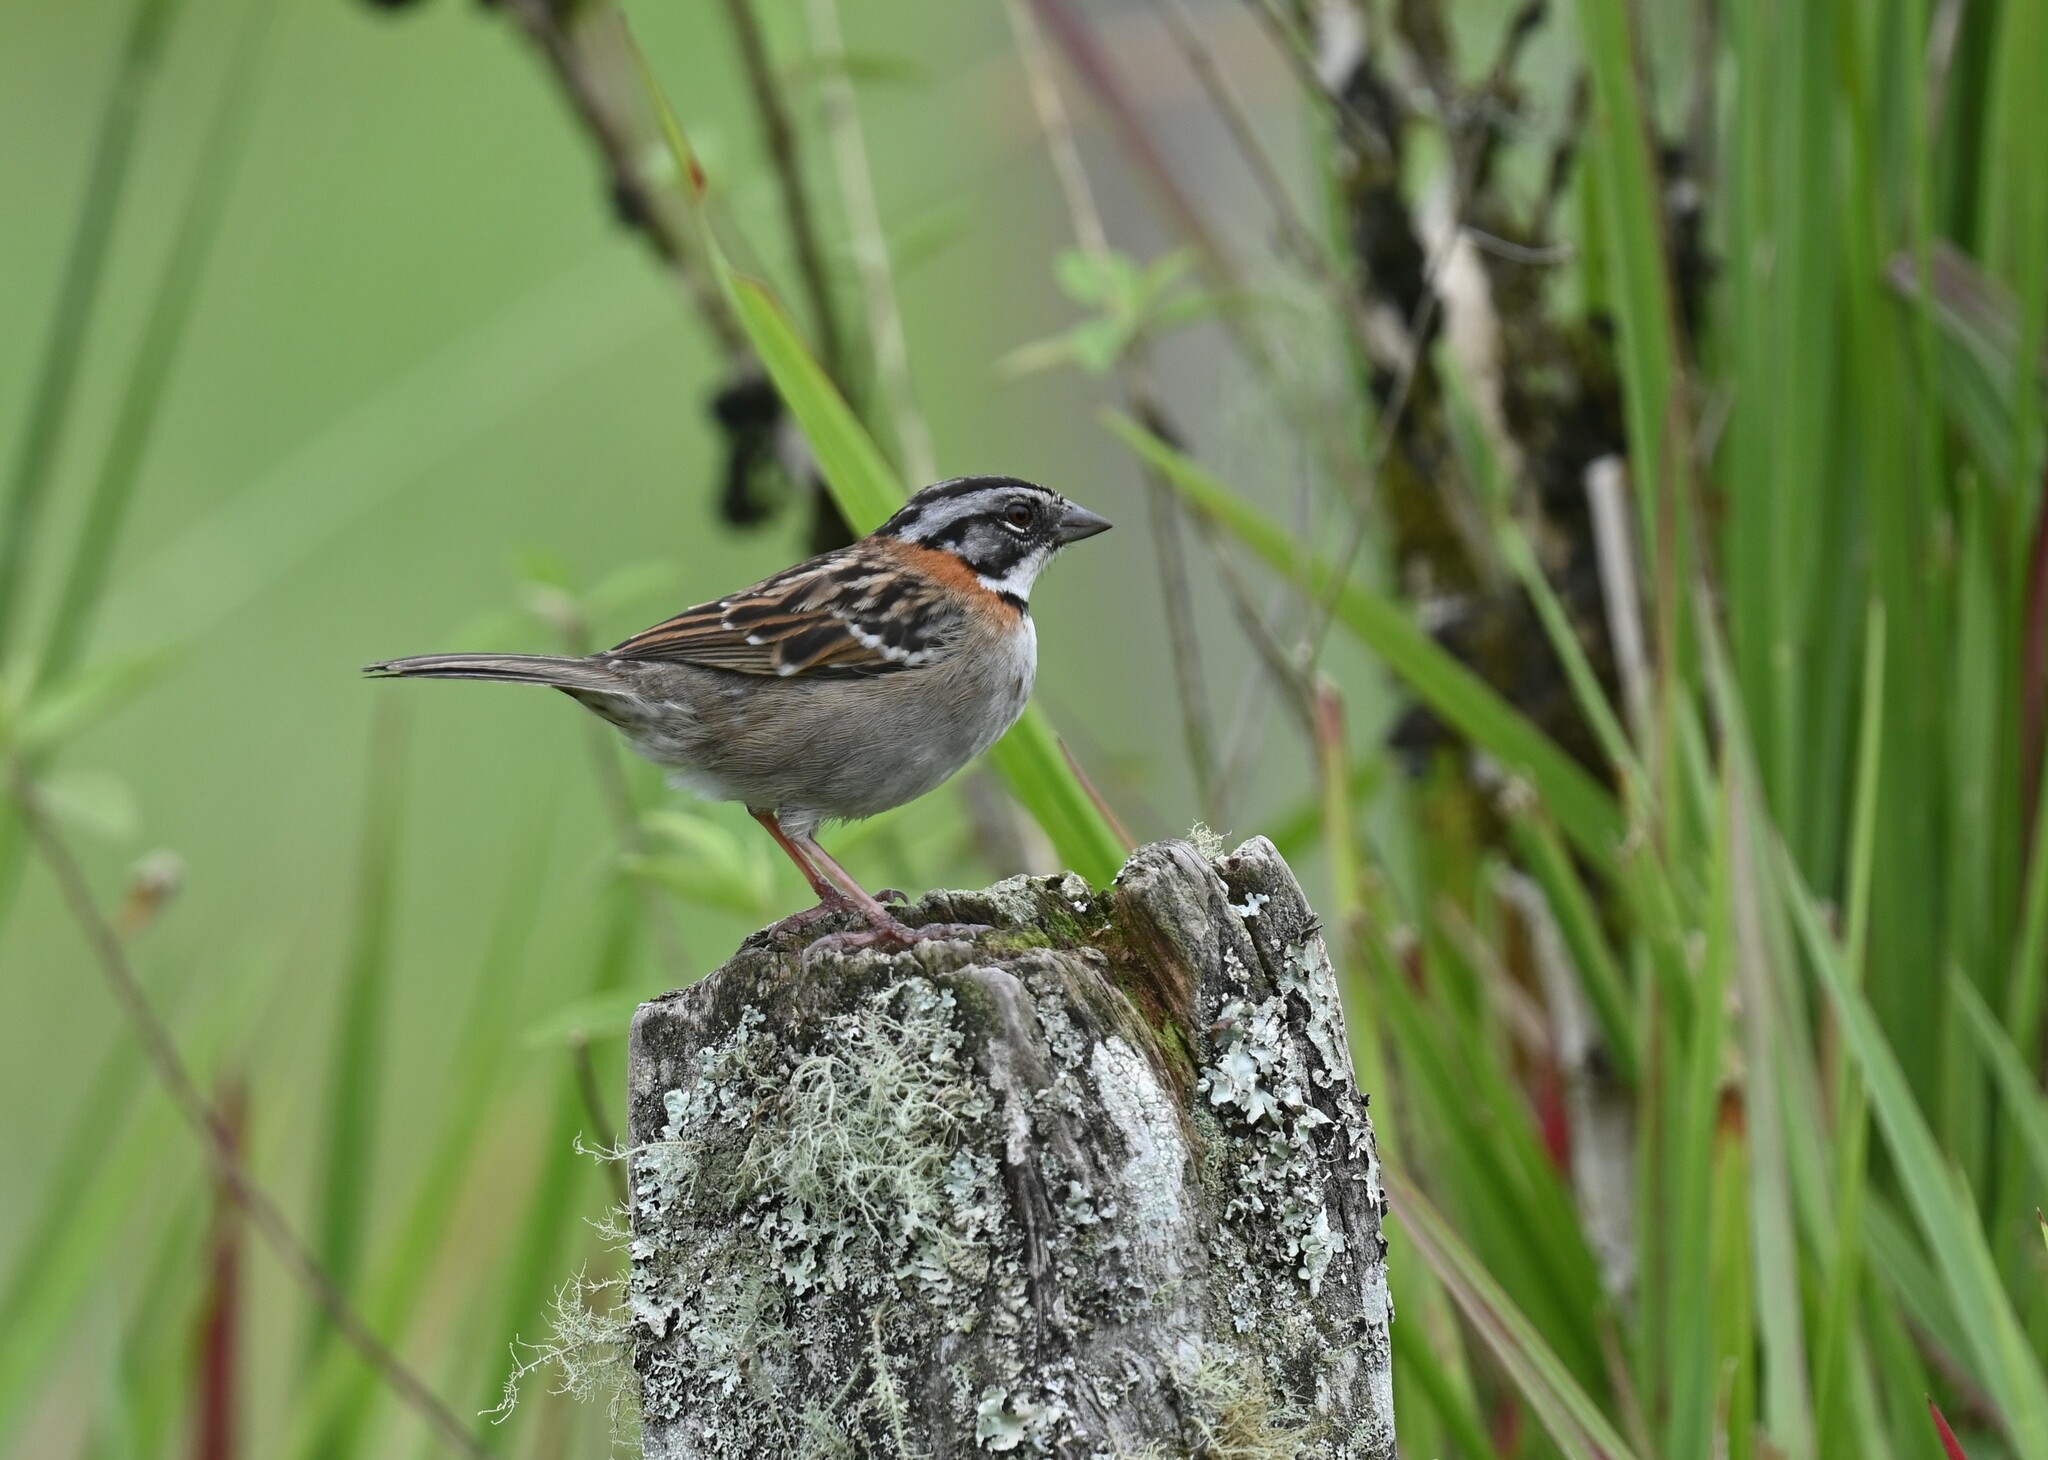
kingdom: Animalia
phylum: Chordata
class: Aves
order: Passeriformes
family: Passerellidae
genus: Zonotrichia
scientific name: Zonotrichia capensis
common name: Rufous-collared sparrow
